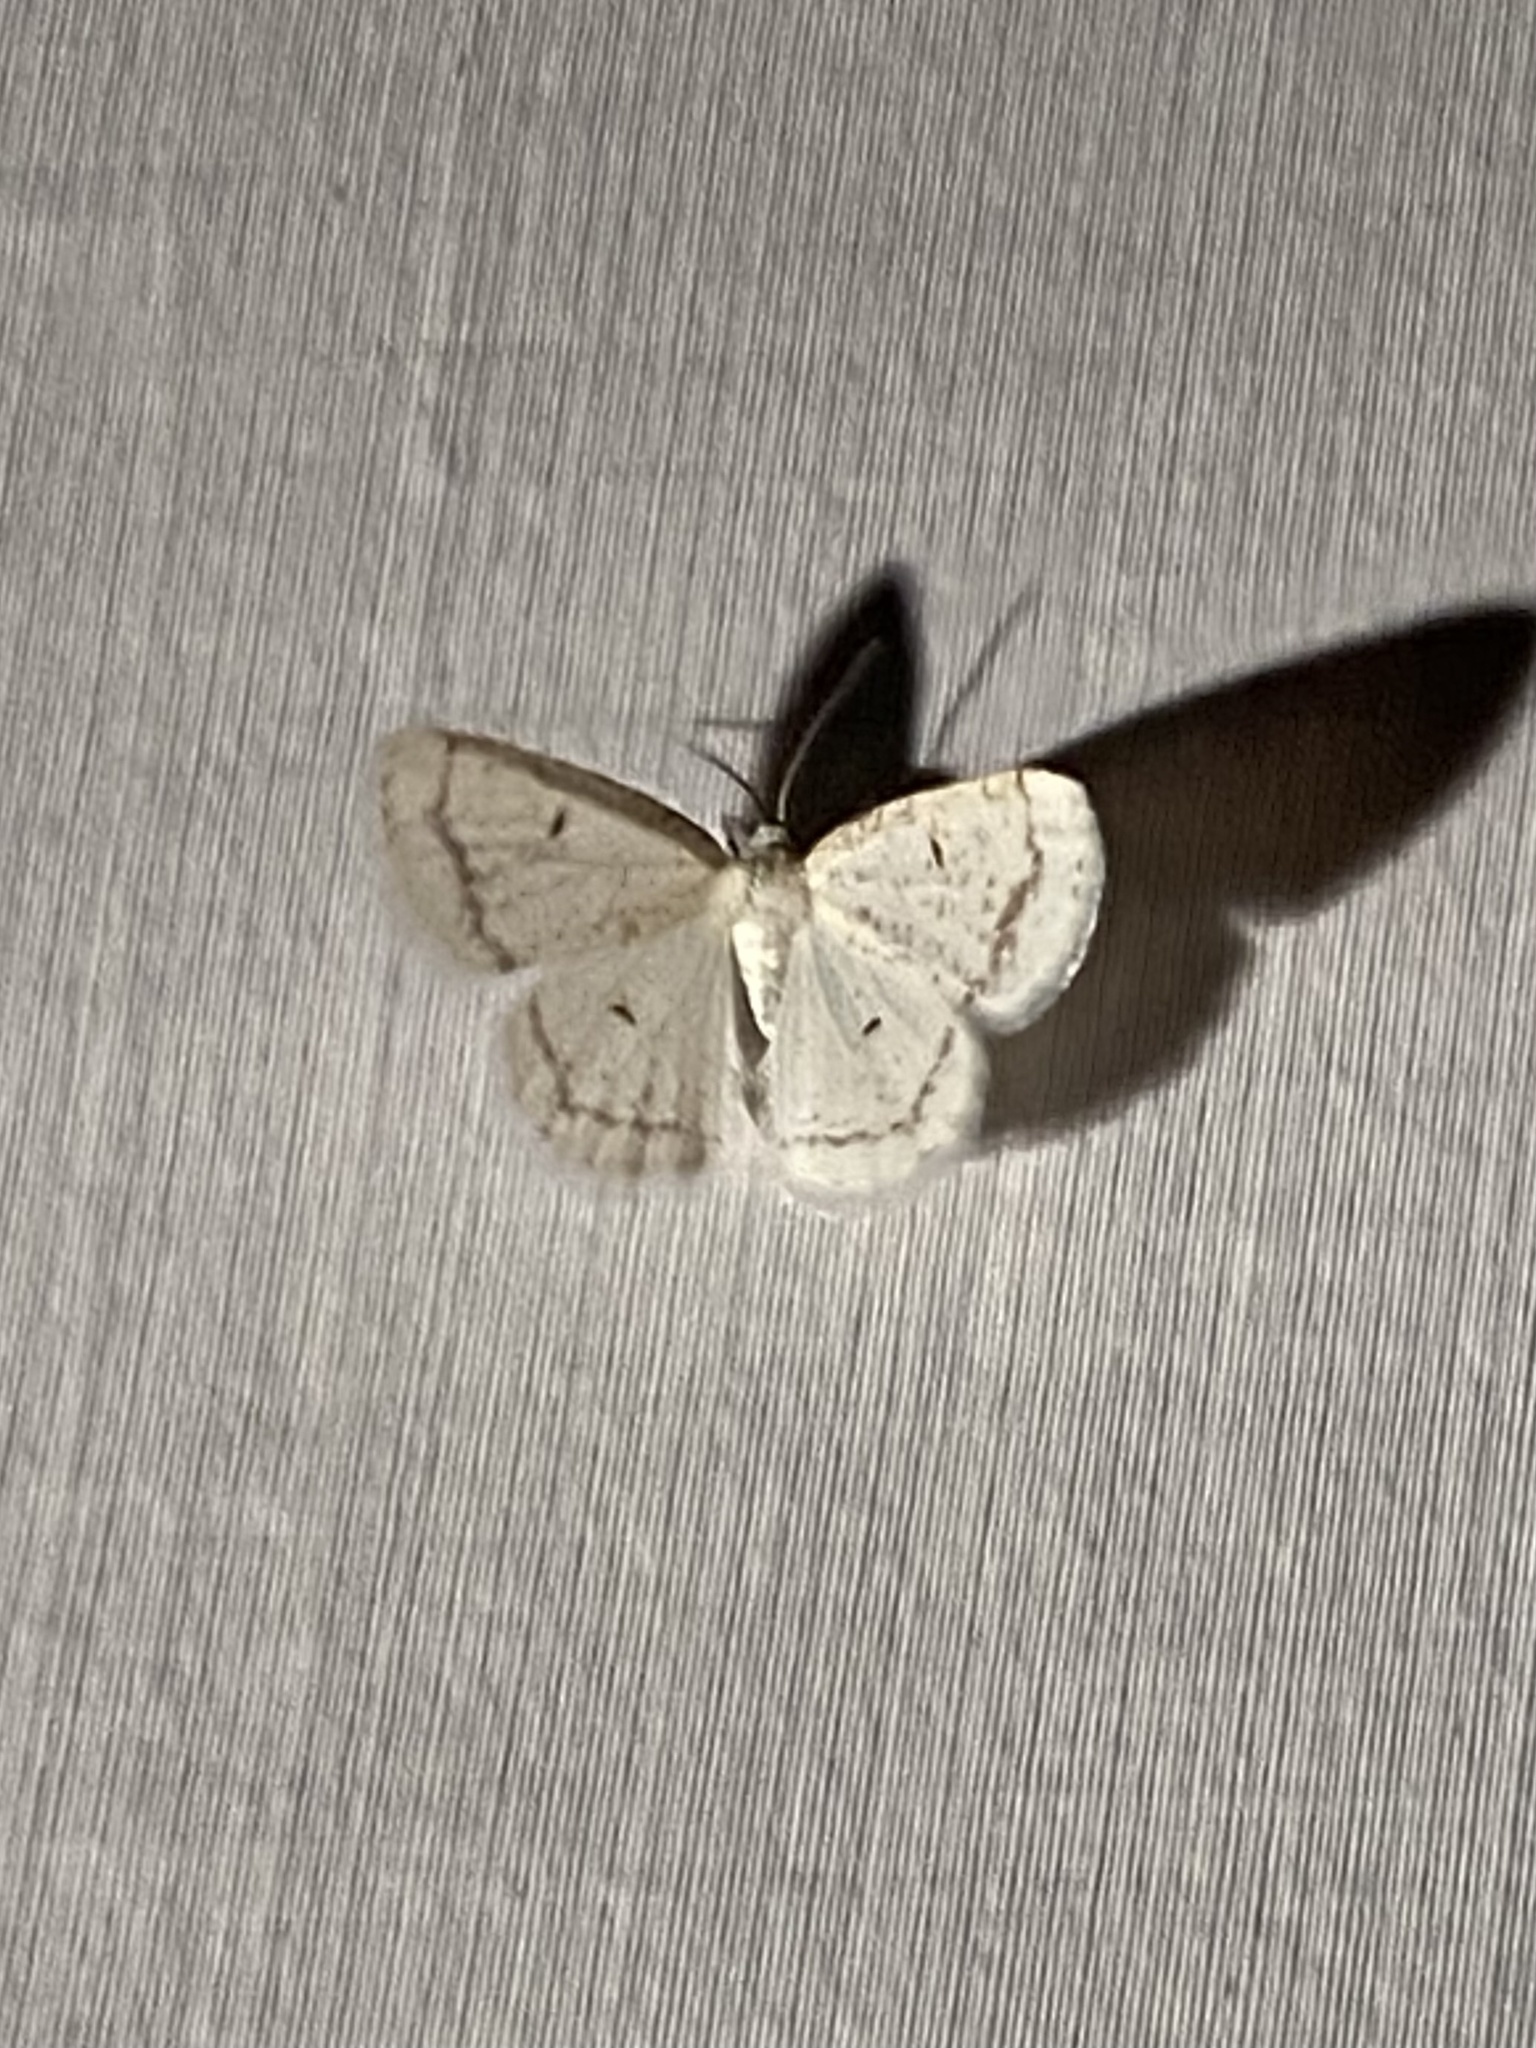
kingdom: Animalia
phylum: Arthropoda
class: Insecta
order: Lepidoptera
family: Geometridae
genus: Protitame
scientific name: Protitame virginalis
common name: Virgin moth
